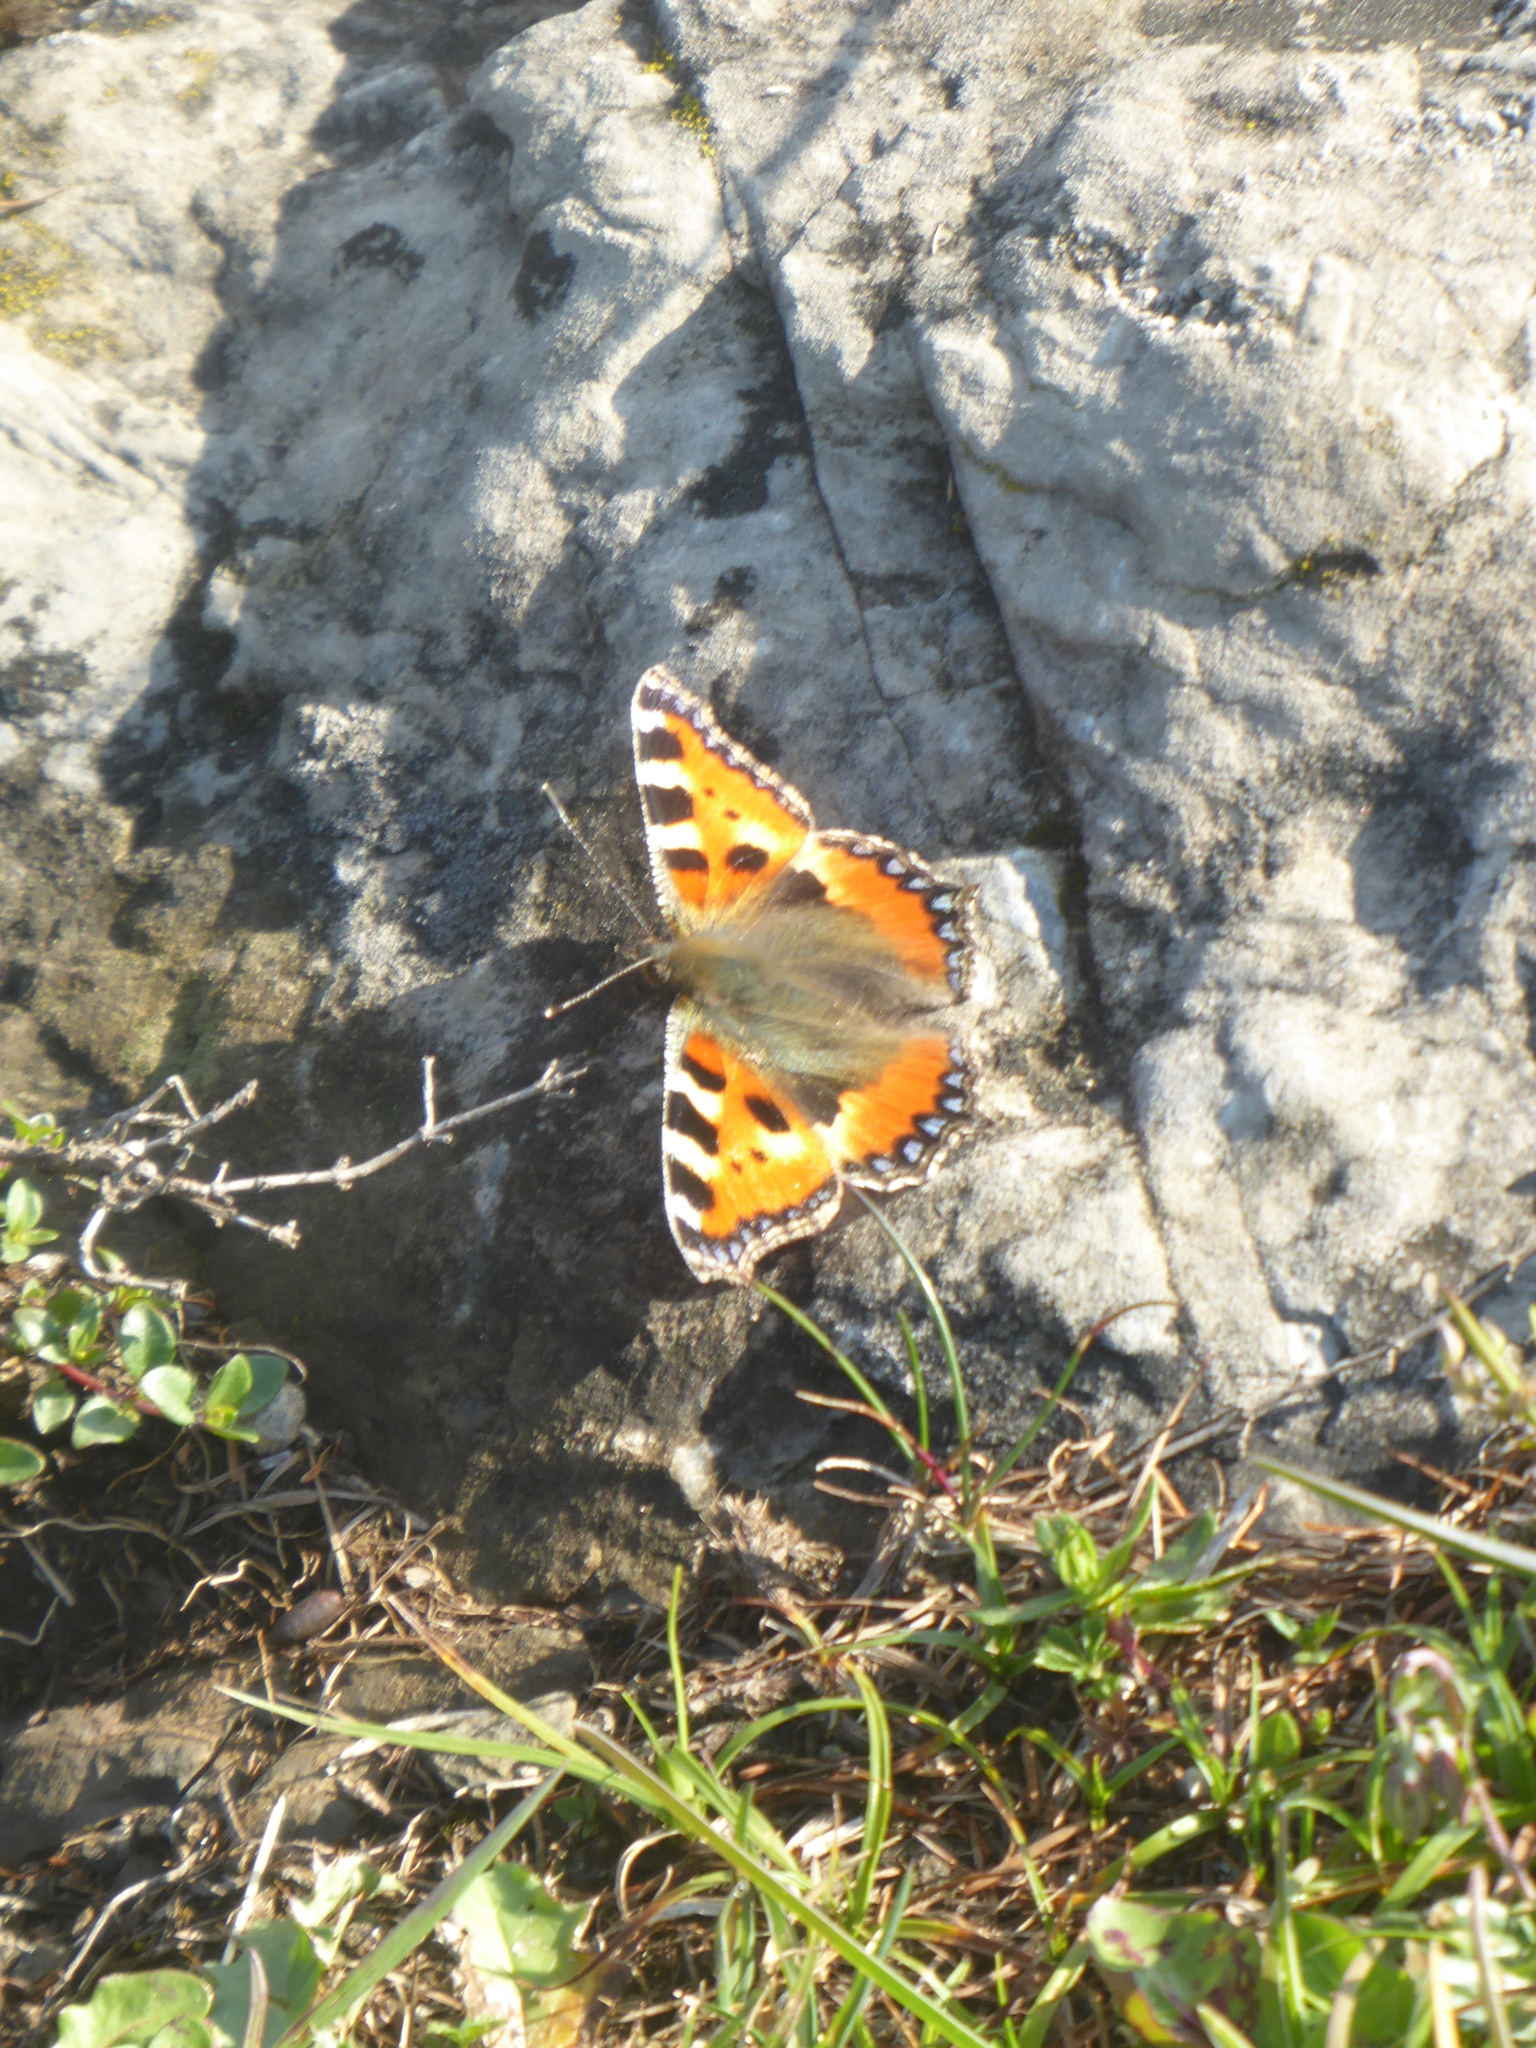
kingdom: Animalia
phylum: Arthropoda
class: Insecta
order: Lepidoptera
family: Nymphalidae
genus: Aglais
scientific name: Aglais urticae
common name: Small tortoiseshell
